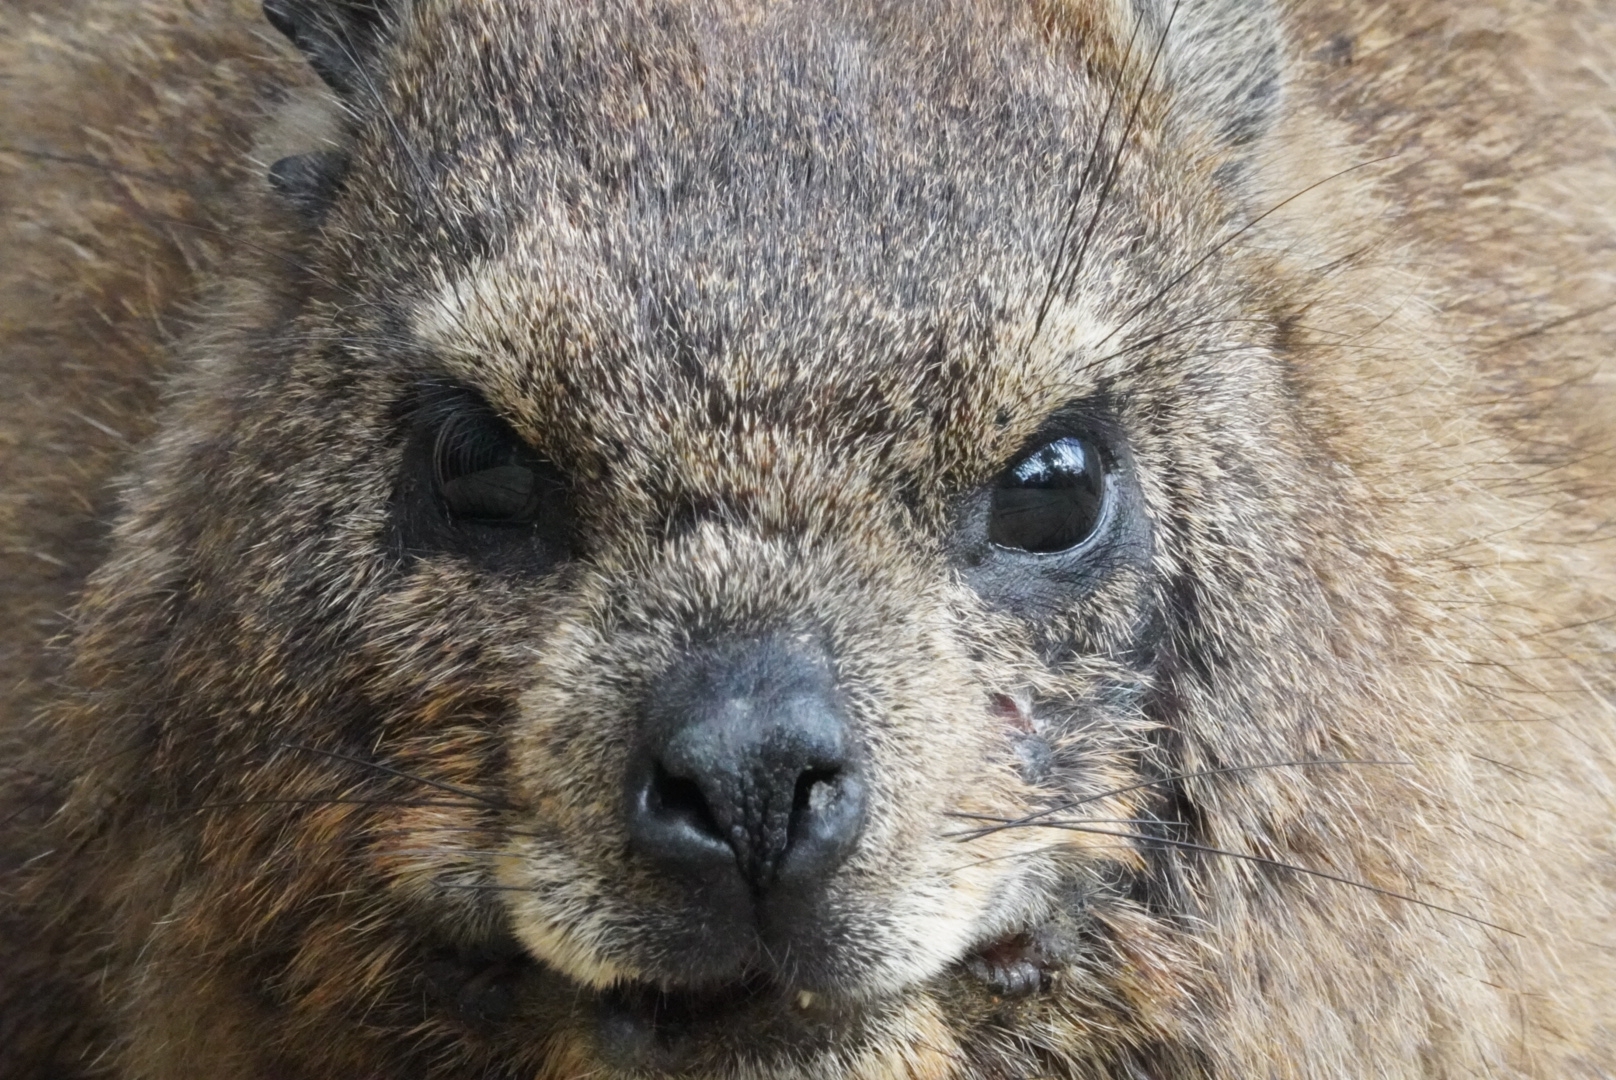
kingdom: Animalia
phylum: Chordata
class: Mammalia
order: Hyracoidea
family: Procaviidae
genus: Procavia
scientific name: Procavia capensis
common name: Rock hyrax
